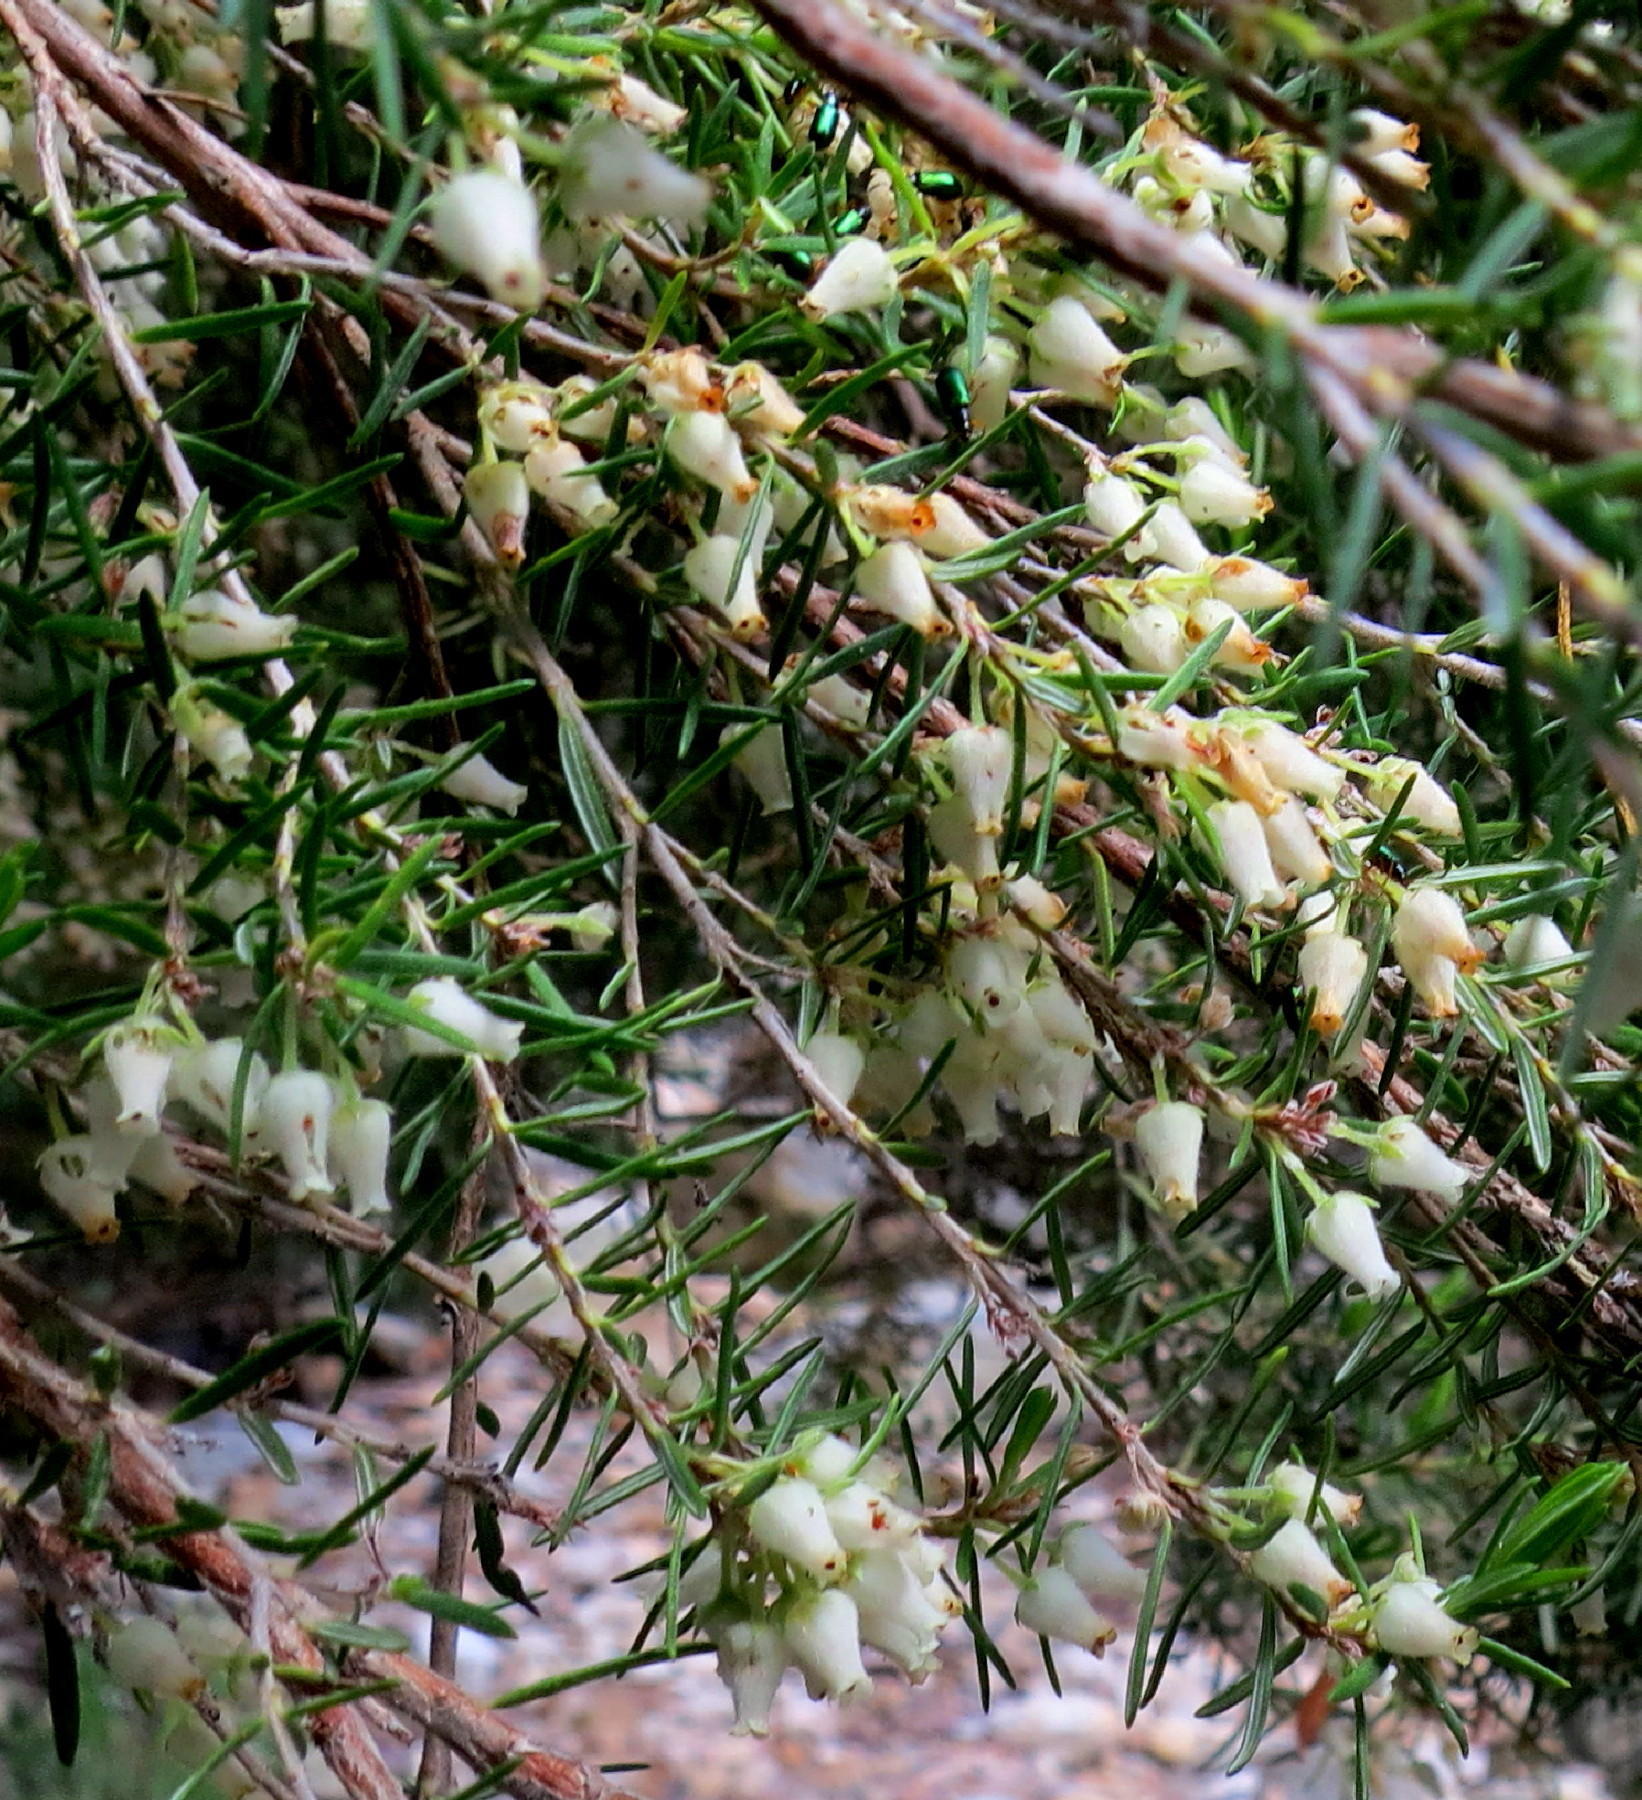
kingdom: Plantae
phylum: Tracheophyta
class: Magnoliopsida
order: Ericales
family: Ericaceae
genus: Erica
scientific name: Erica caffra
